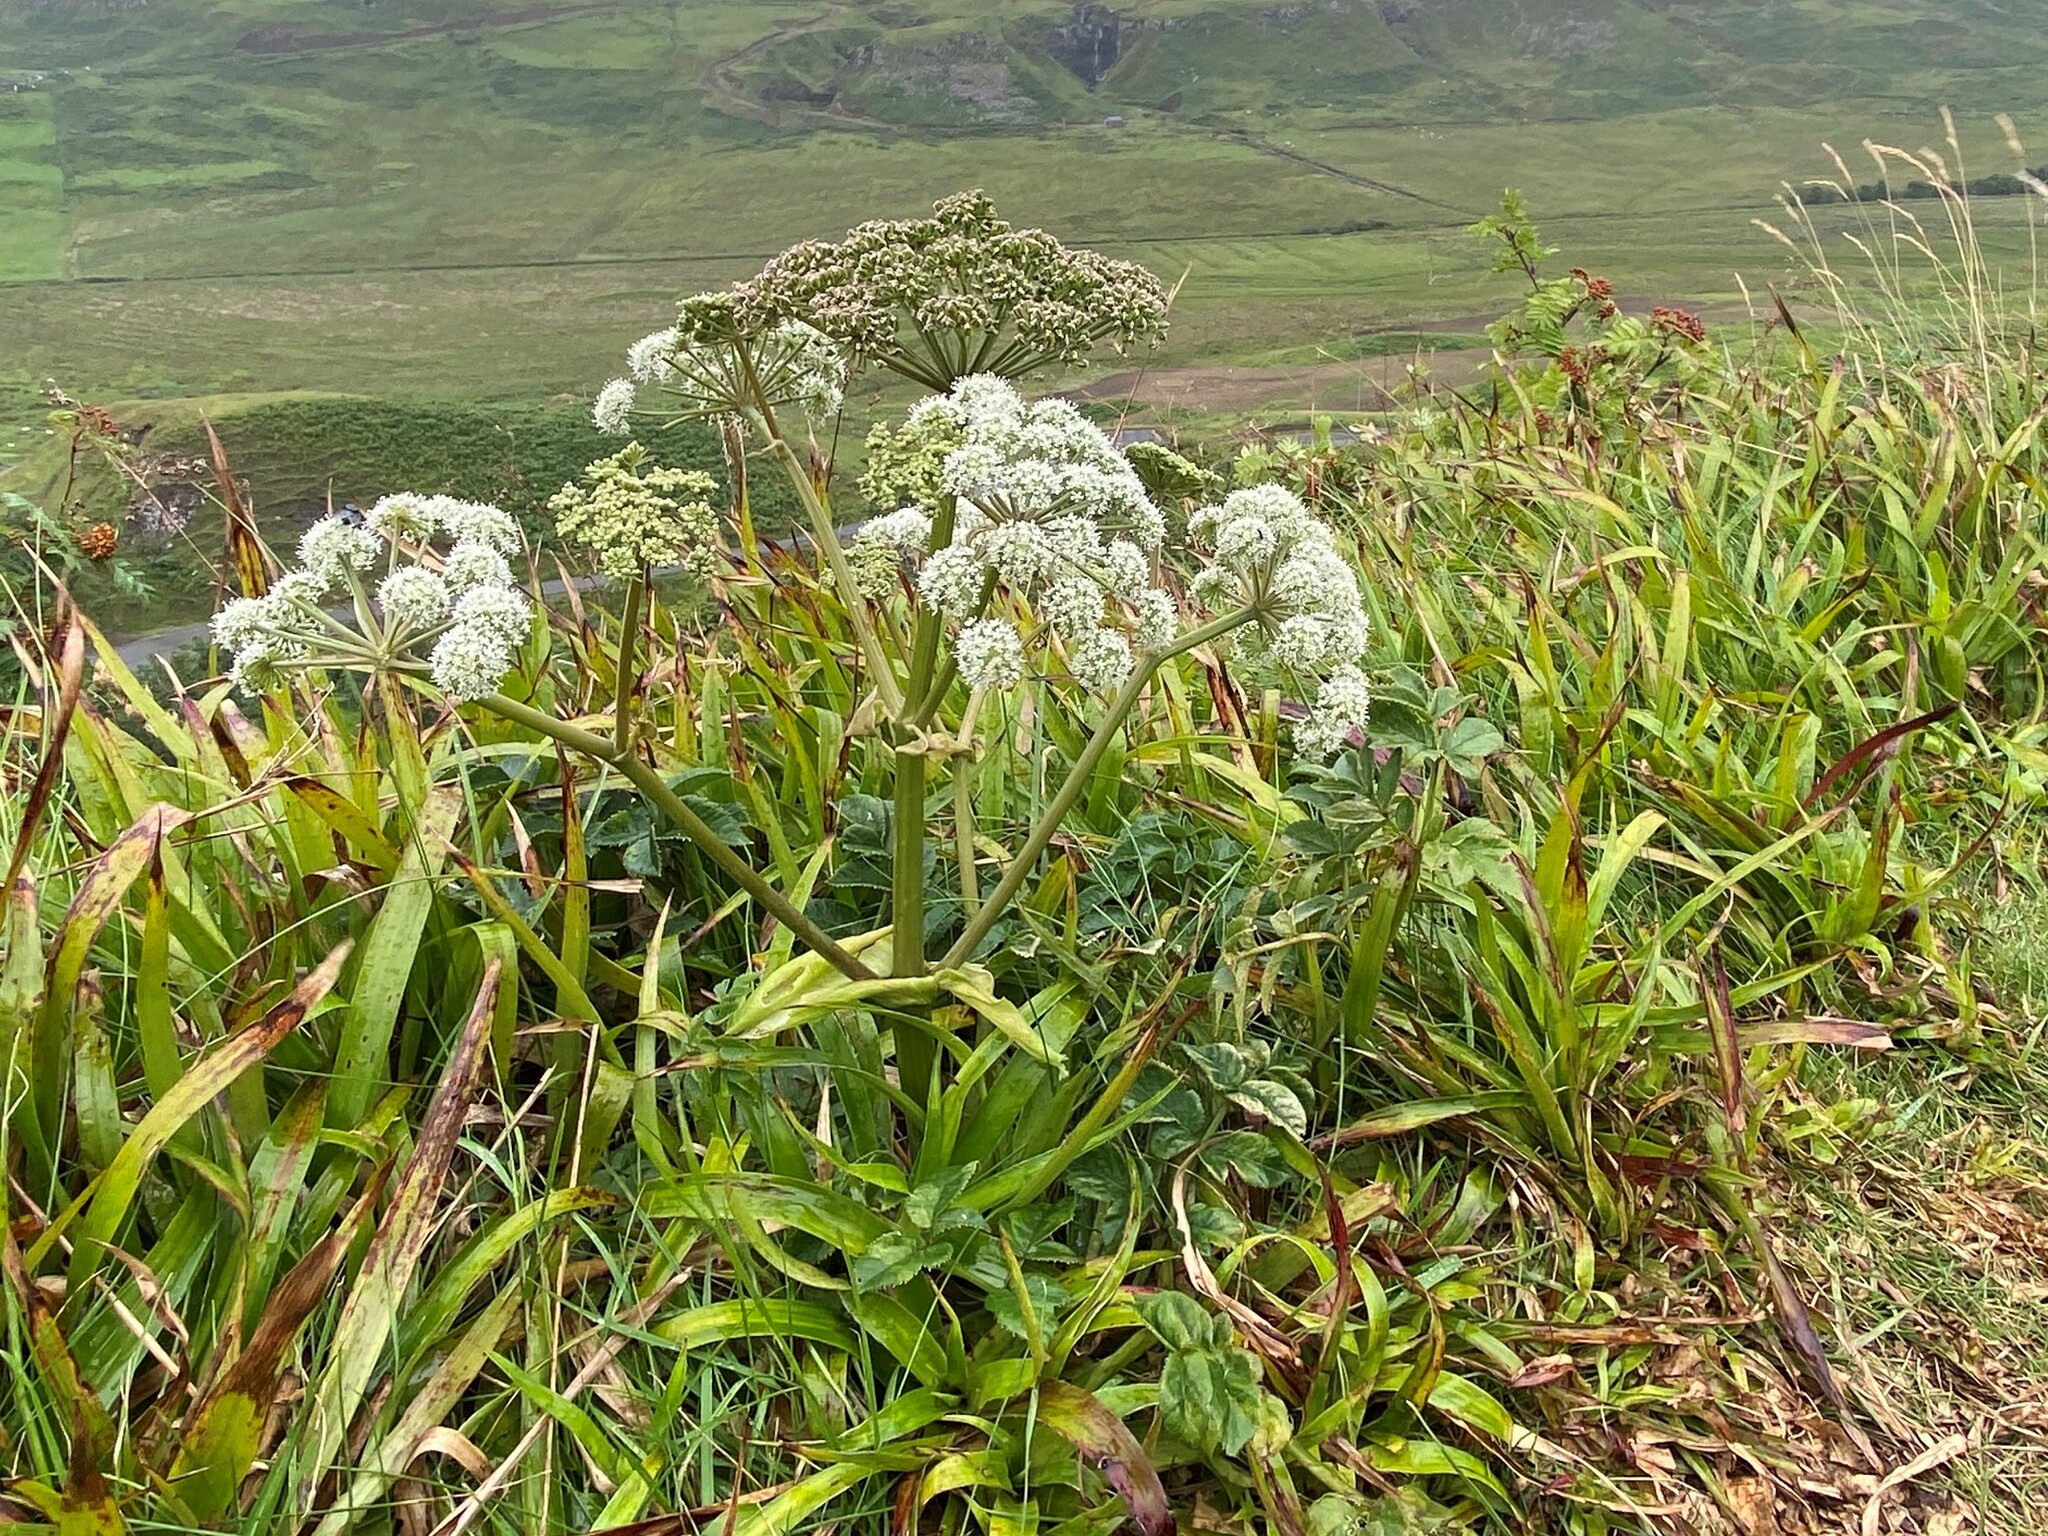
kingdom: Plantae
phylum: Tracheophyta
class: Magnoliopsida
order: Apiales
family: Apiaceae
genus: Angelica
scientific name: Angelica sylvestris
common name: Wild angelica
